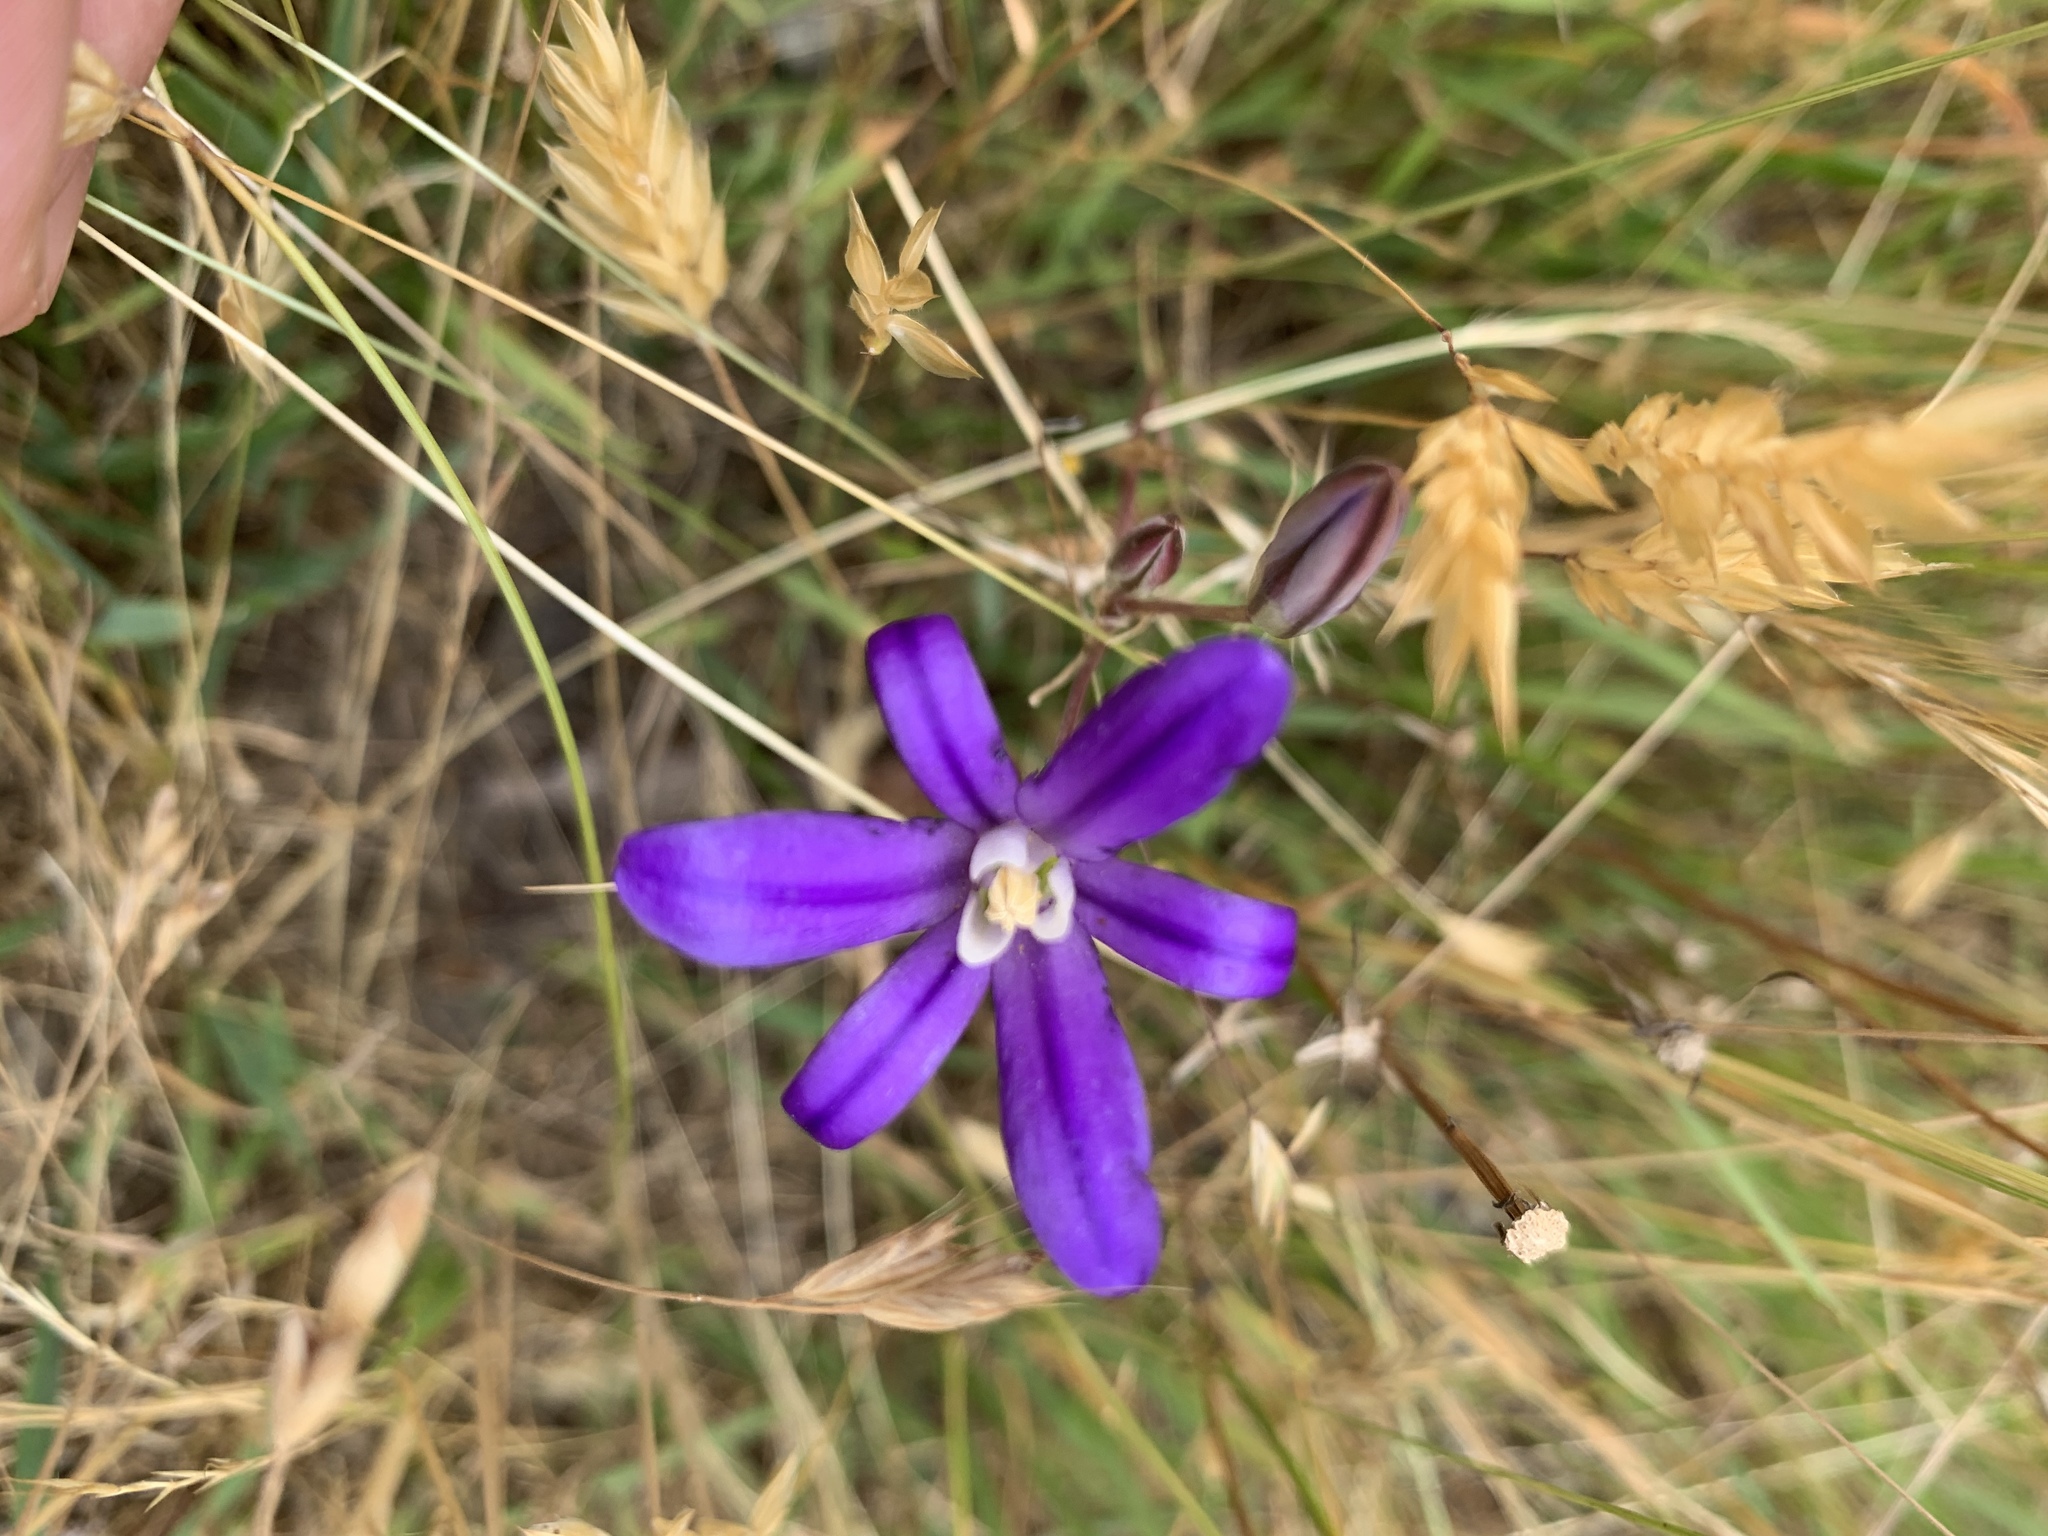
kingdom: Plantae
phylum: Tracheophyta
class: Liliopsida
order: Asparagales
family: Asparagaceae
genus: Brodiaea
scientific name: Brodiaea coronaria
